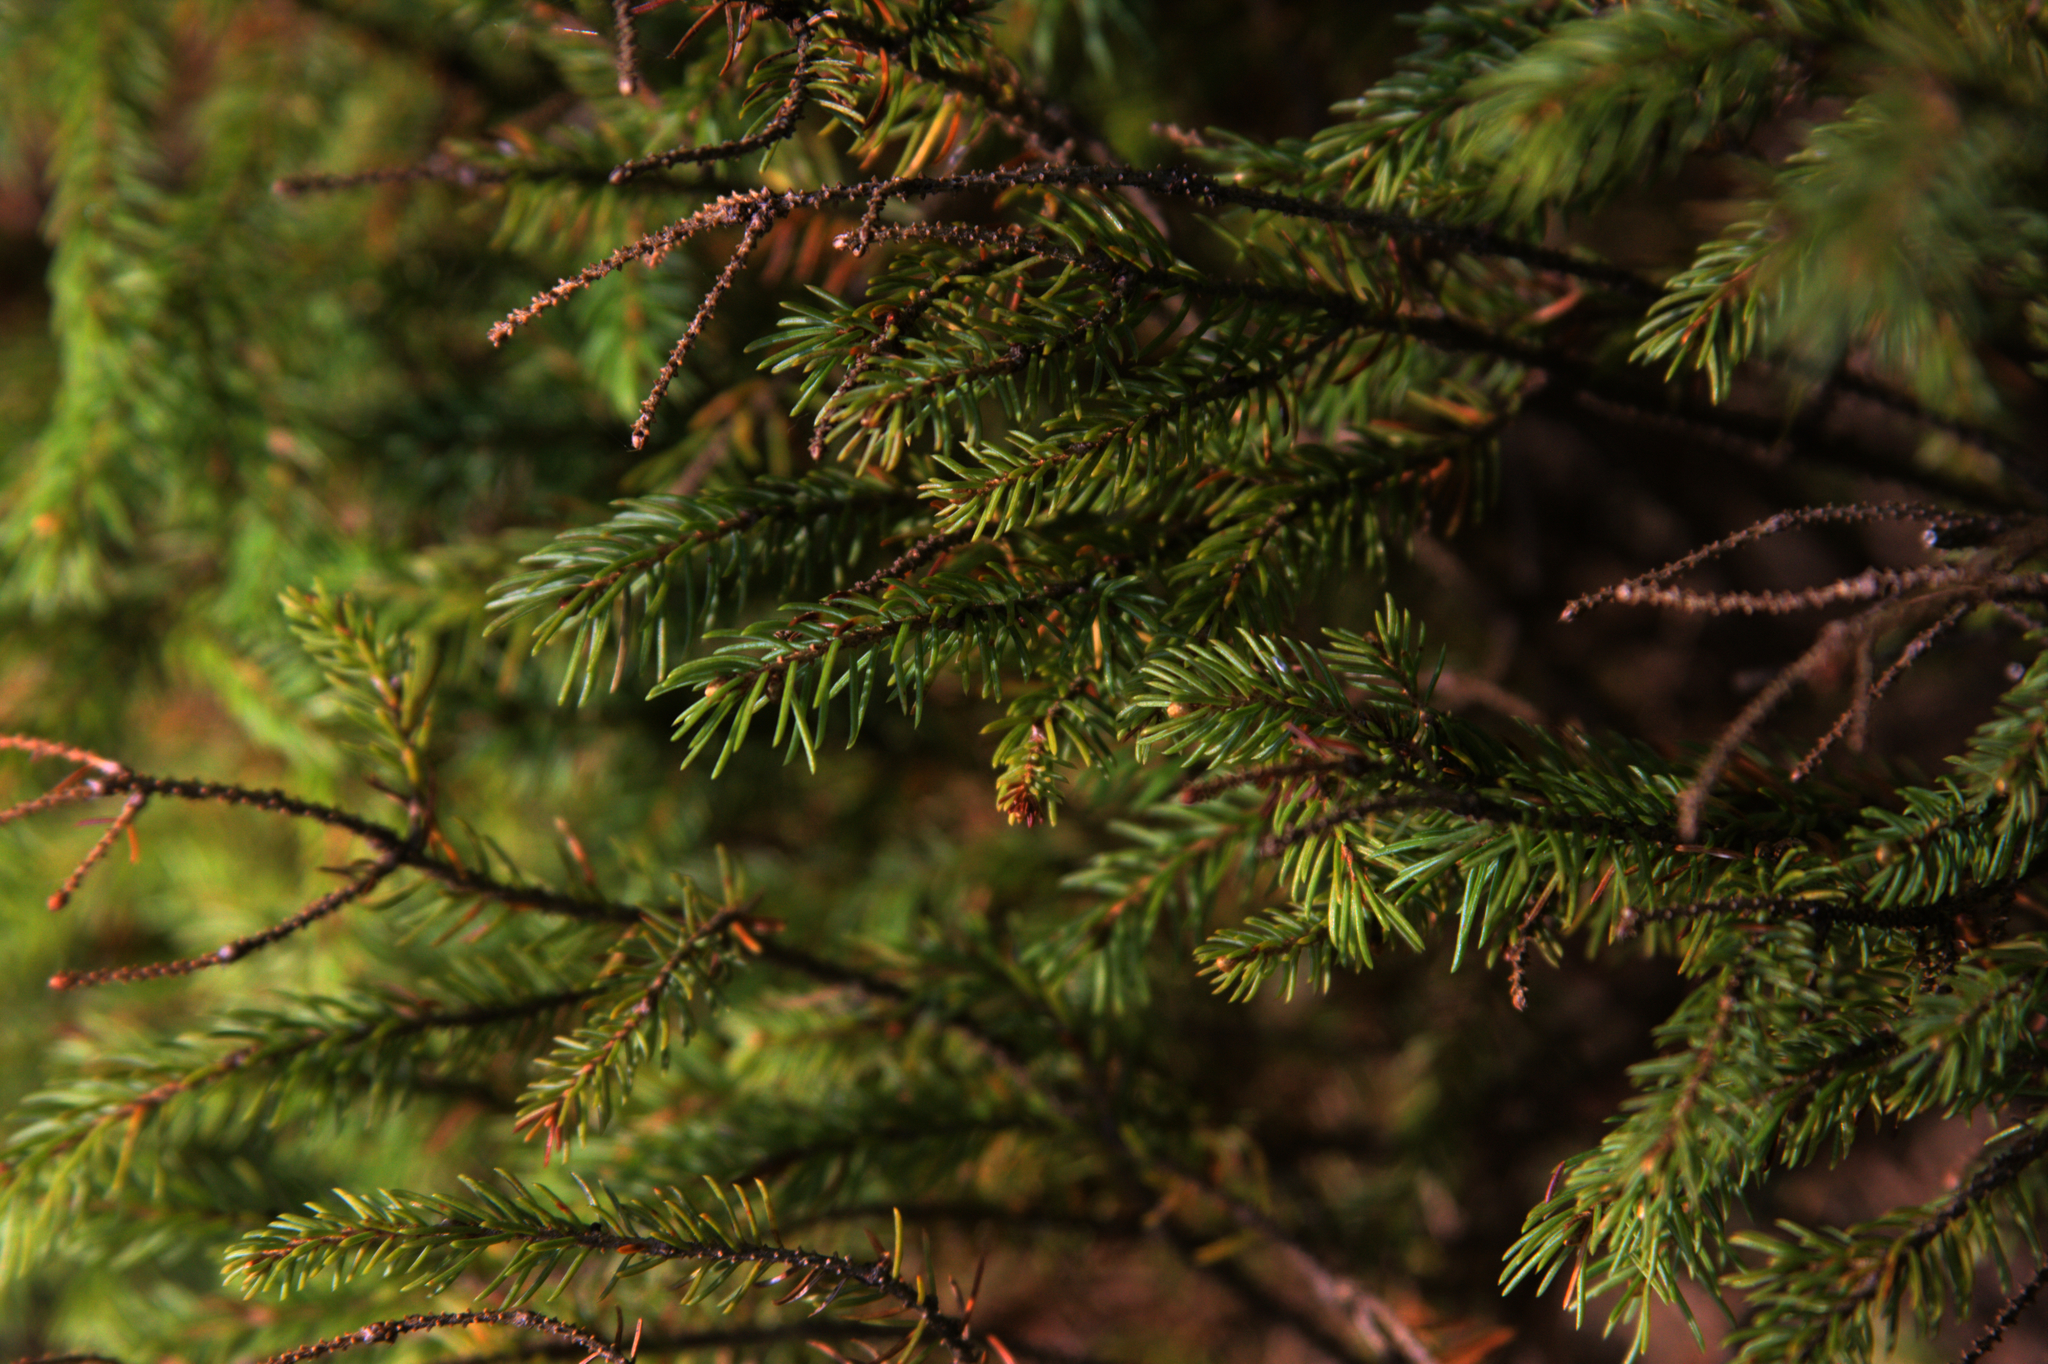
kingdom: Plantae
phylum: Tracheophyta
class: Pinopsida
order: Pinales
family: Pinaceae
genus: Picea
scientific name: Picea mariana
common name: Black spruce
